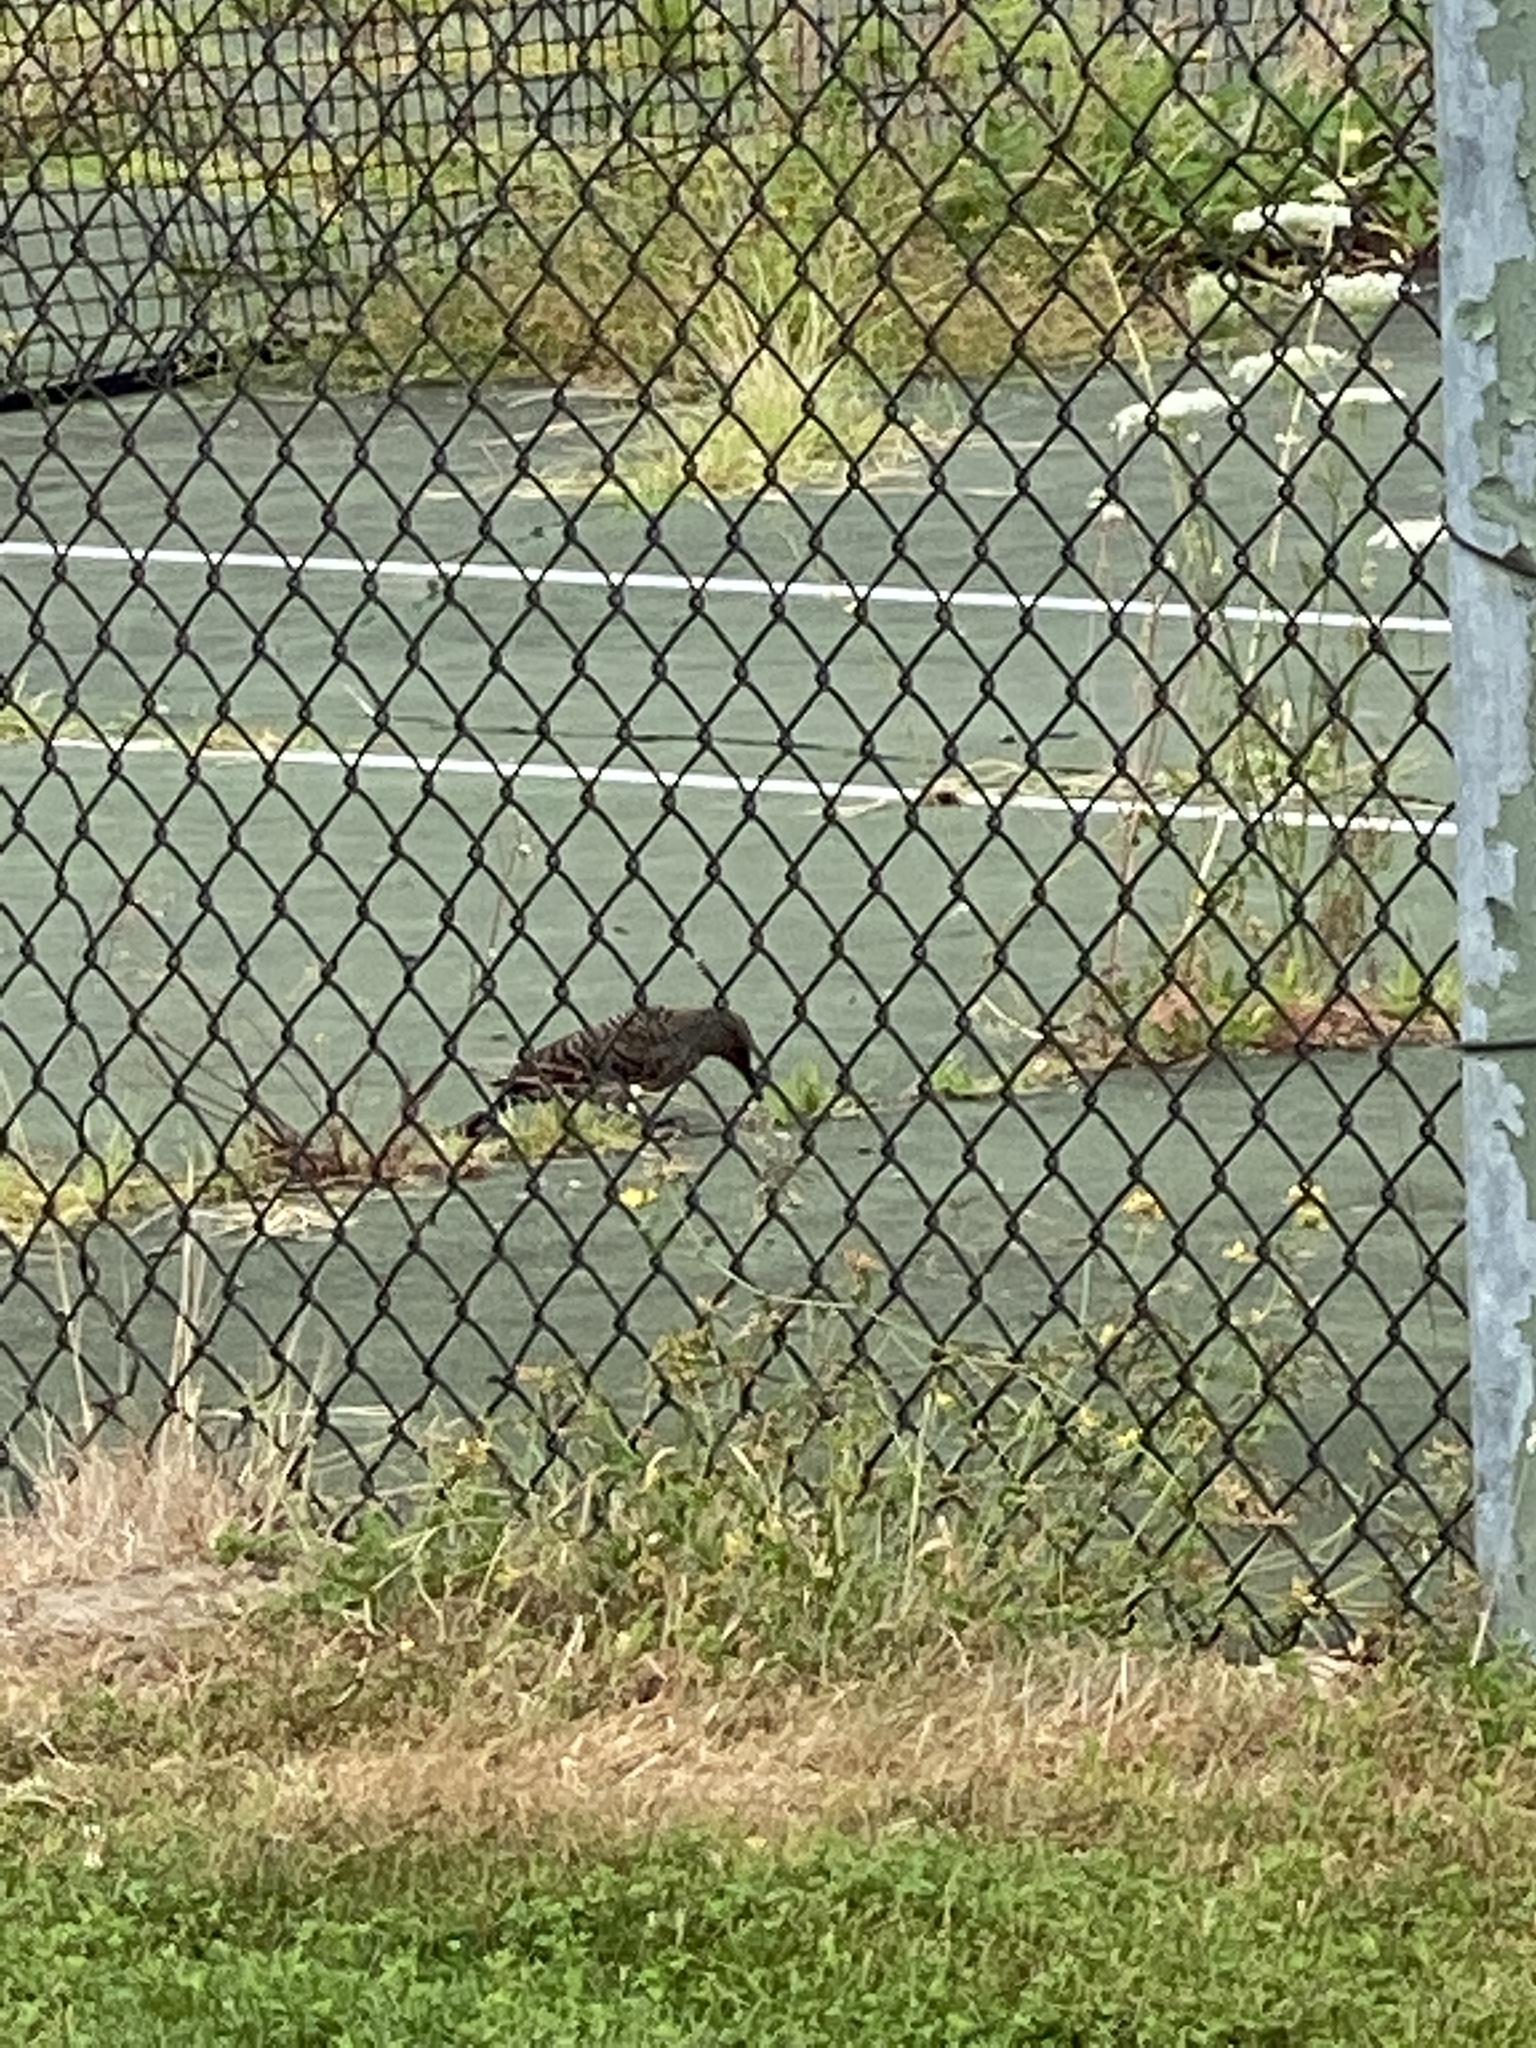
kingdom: Animalia
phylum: Chordata
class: Aves
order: Piciformes
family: Picidae
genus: Colaptes
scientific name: Colaptes auratus
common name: Northern flicker
